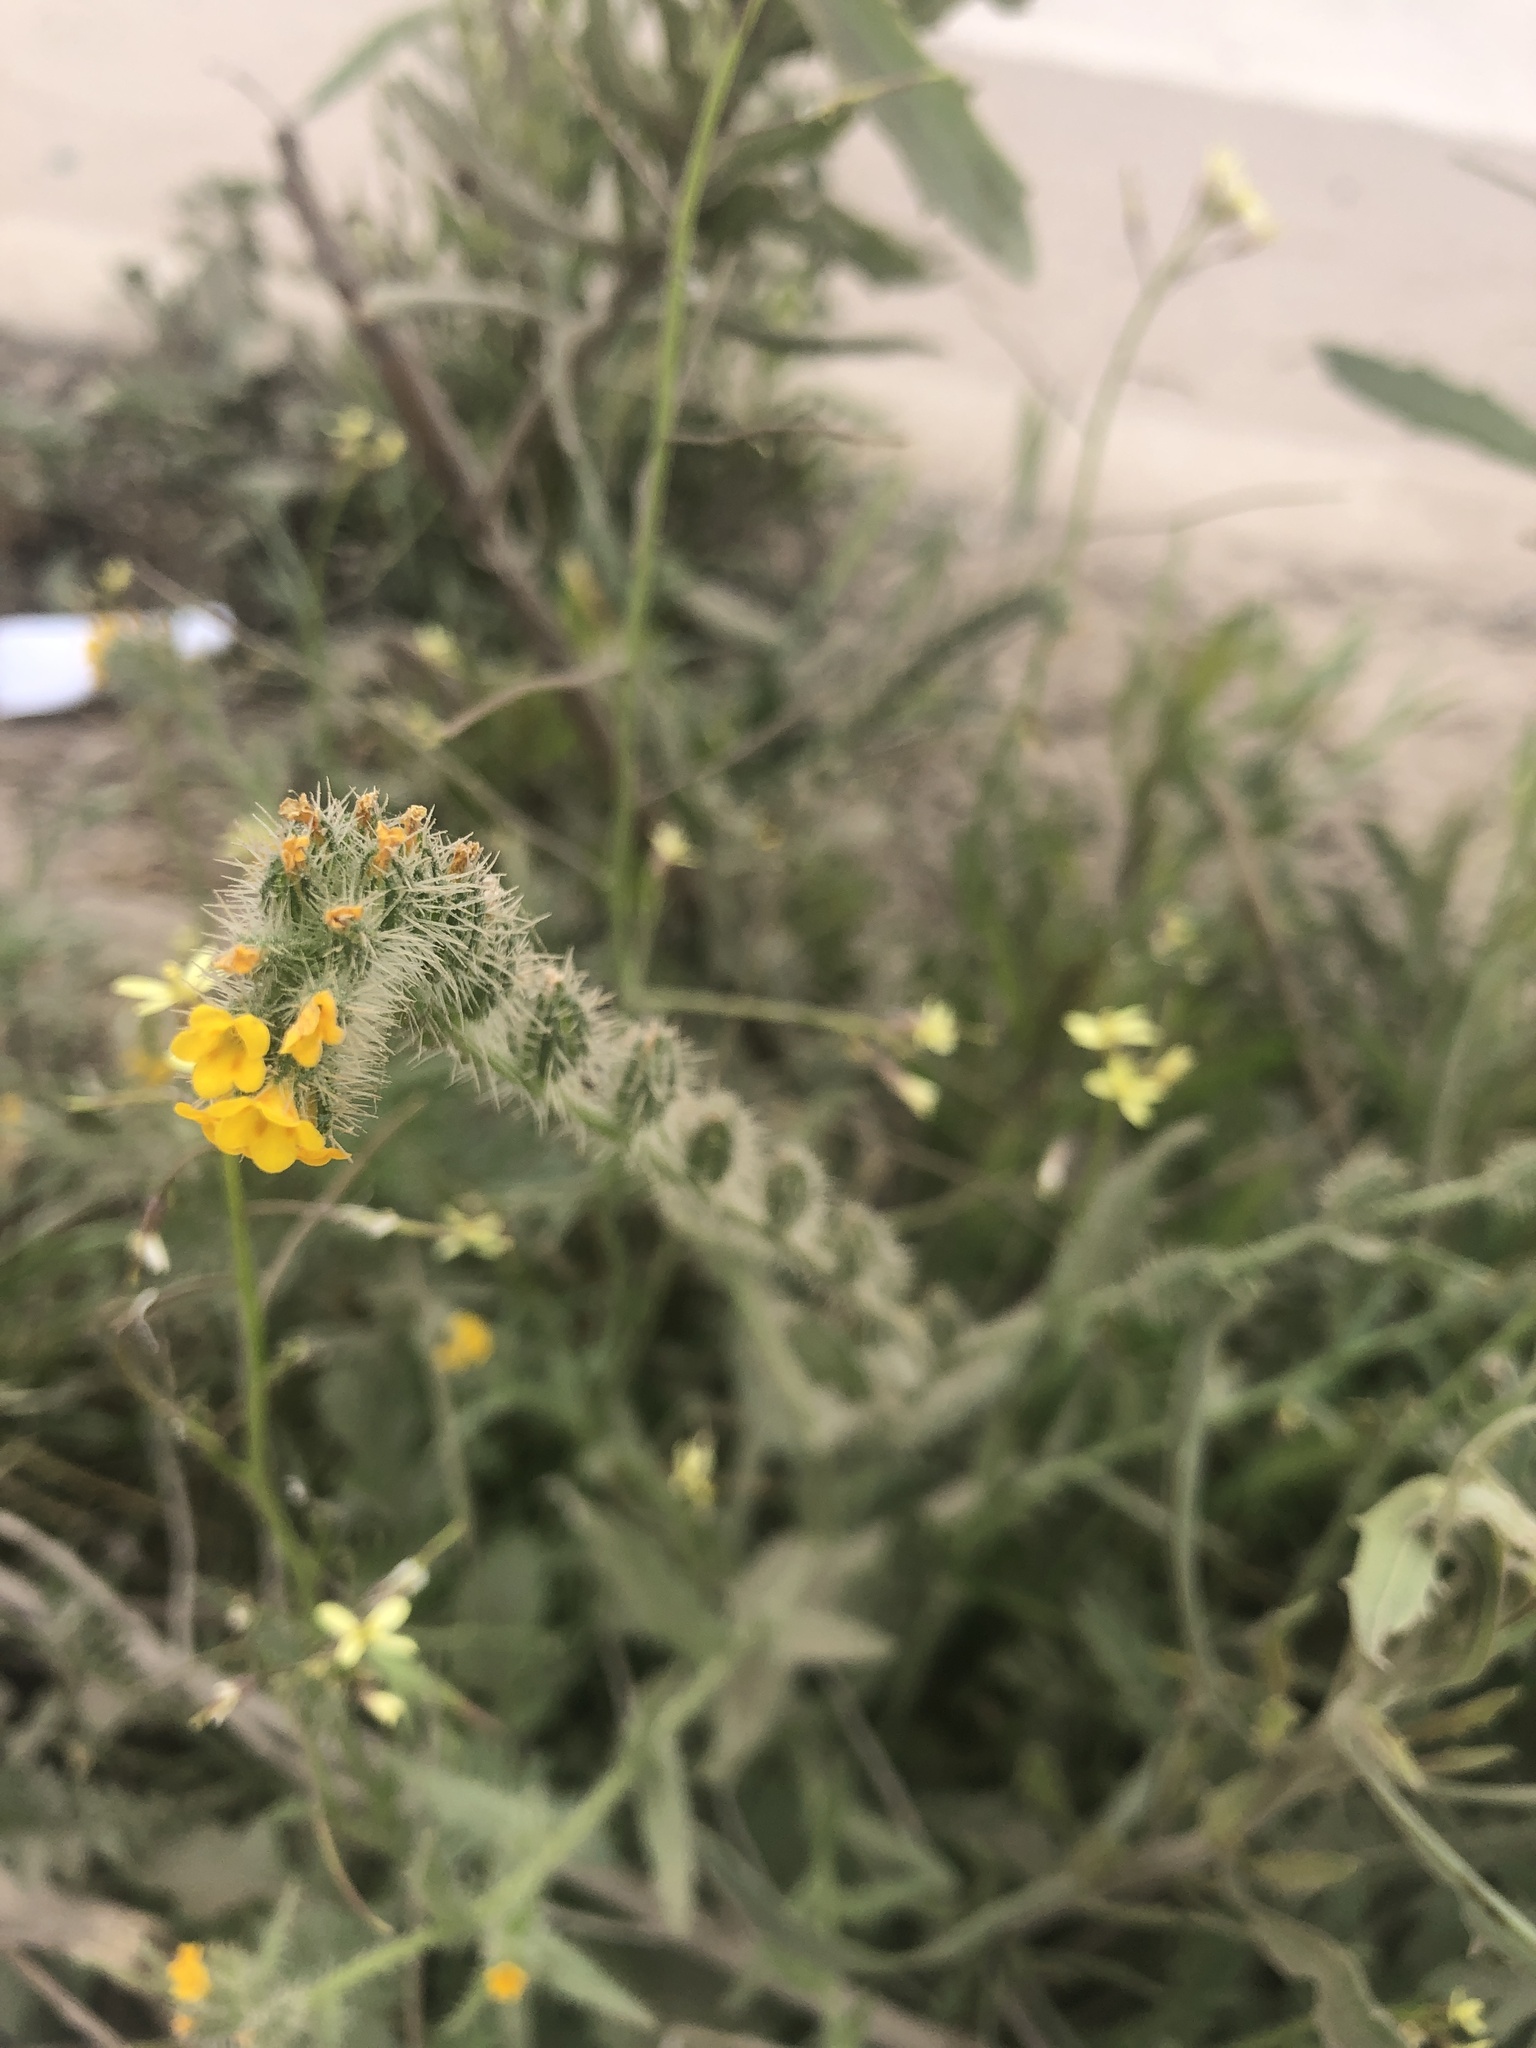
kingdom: Plantae
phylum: Tracheophyta
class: Magnoliopsida
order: Boraginales
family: Boraginaceae
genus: Amsinckia
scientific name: Amsinckia calycina
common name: Hairy fiddleneck
